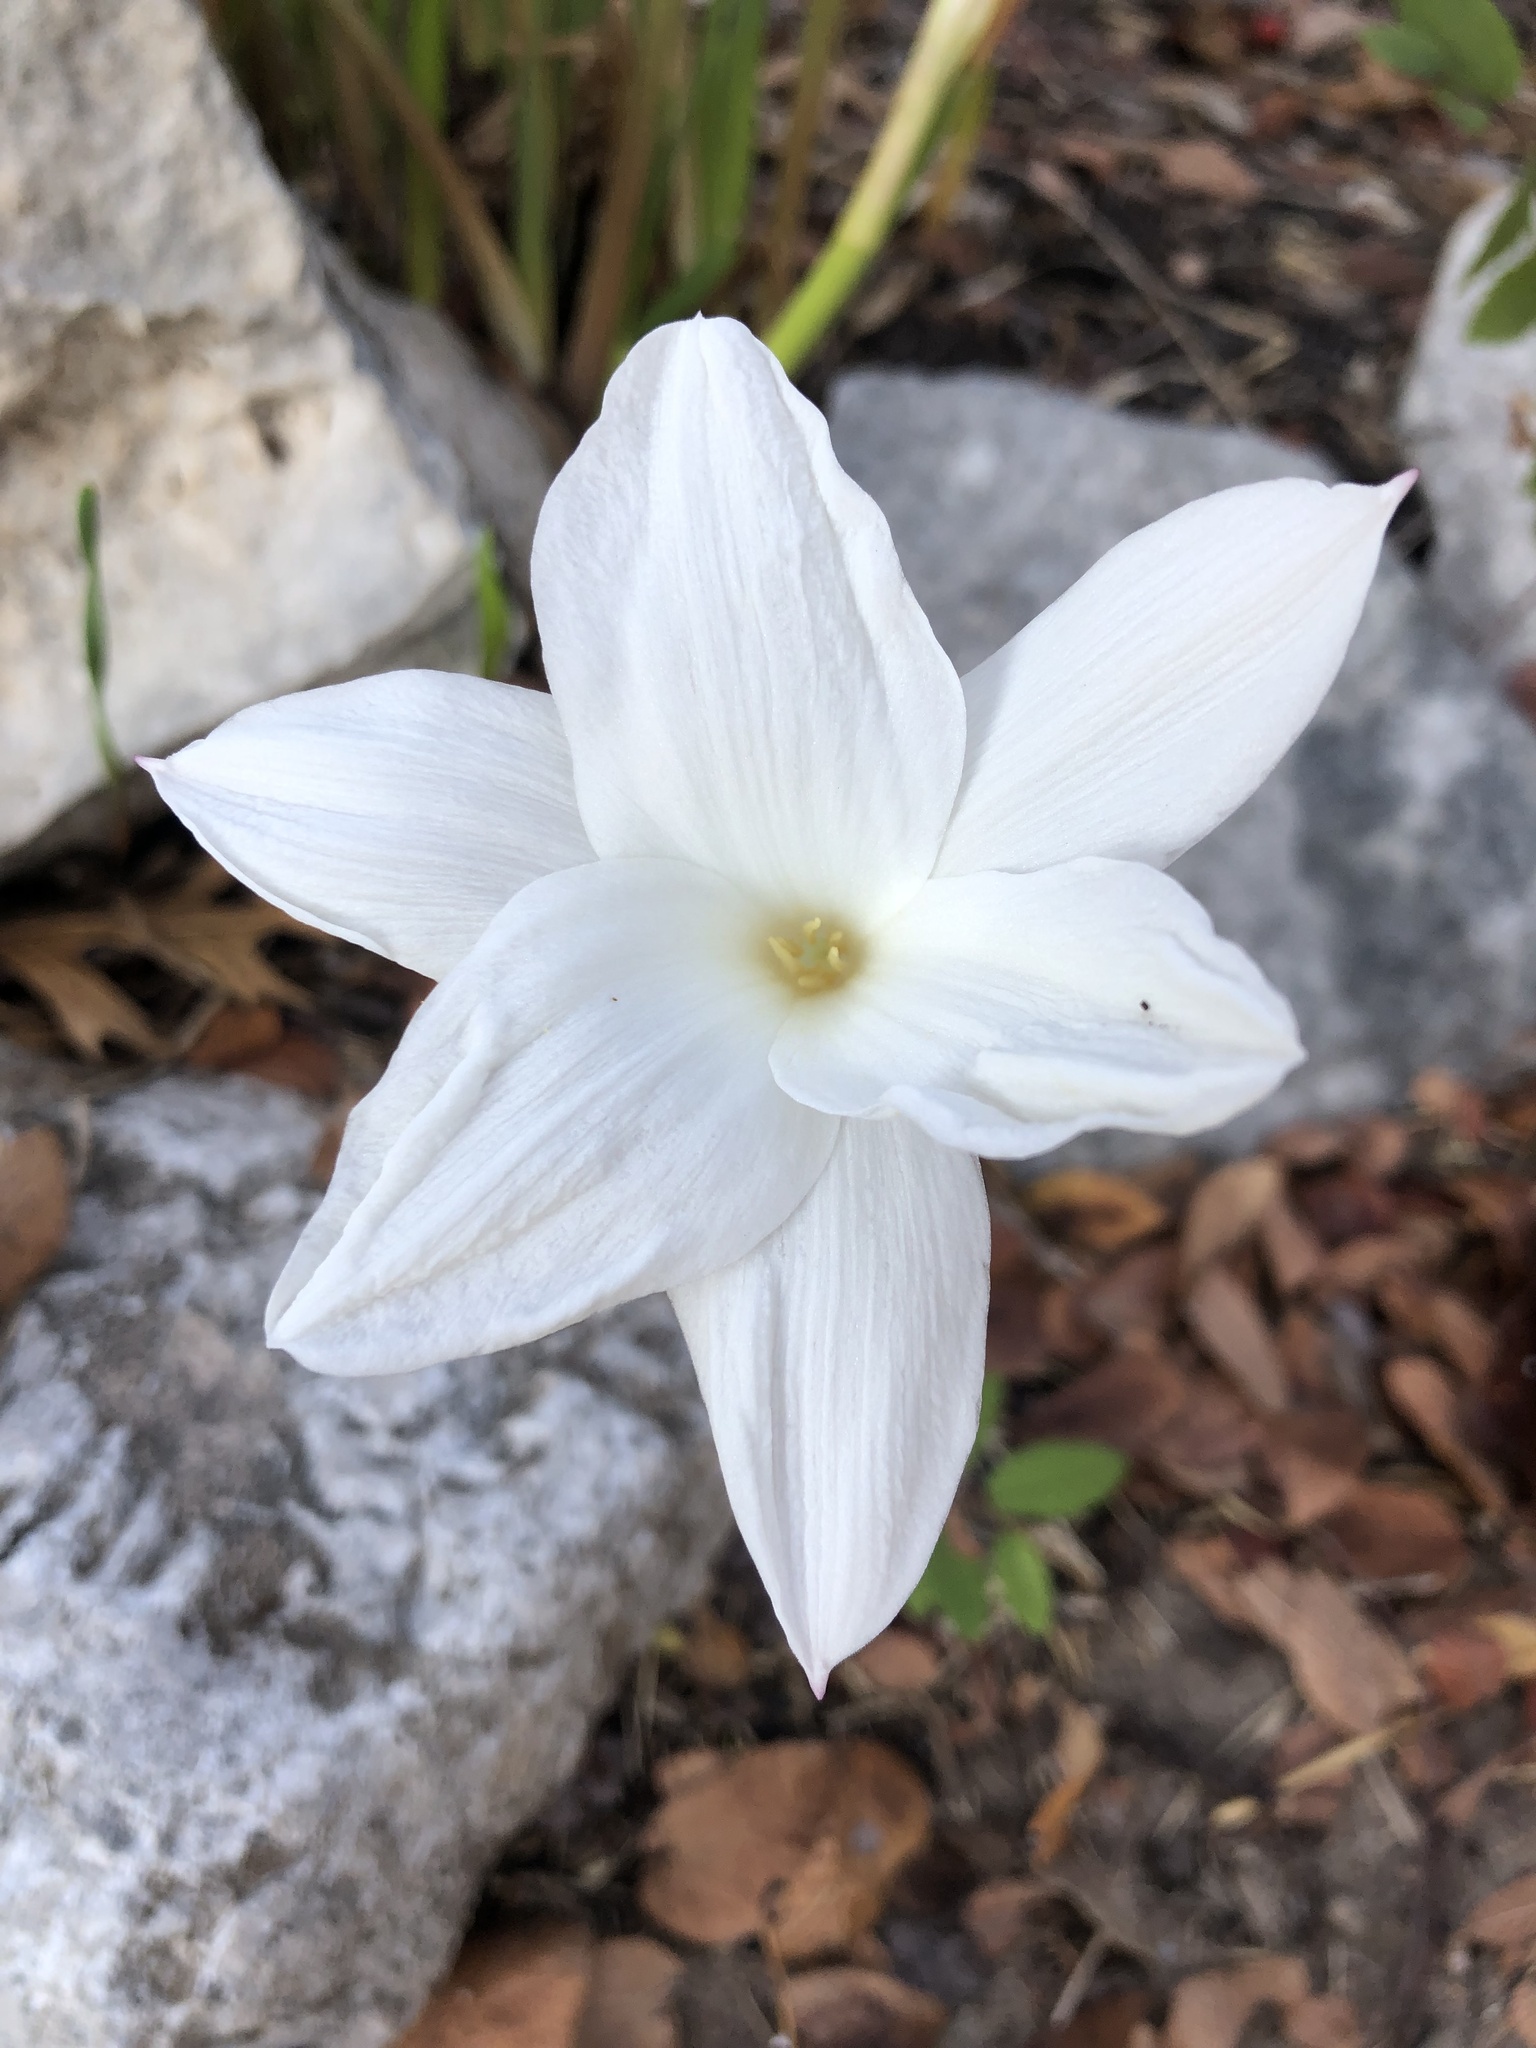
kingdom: Plantae
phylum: Tracheophyta
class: Liliopsida
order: Asparagales
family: Amaryllidaceae
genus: Zephyranthes
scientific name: Zephyranthes drummondii
